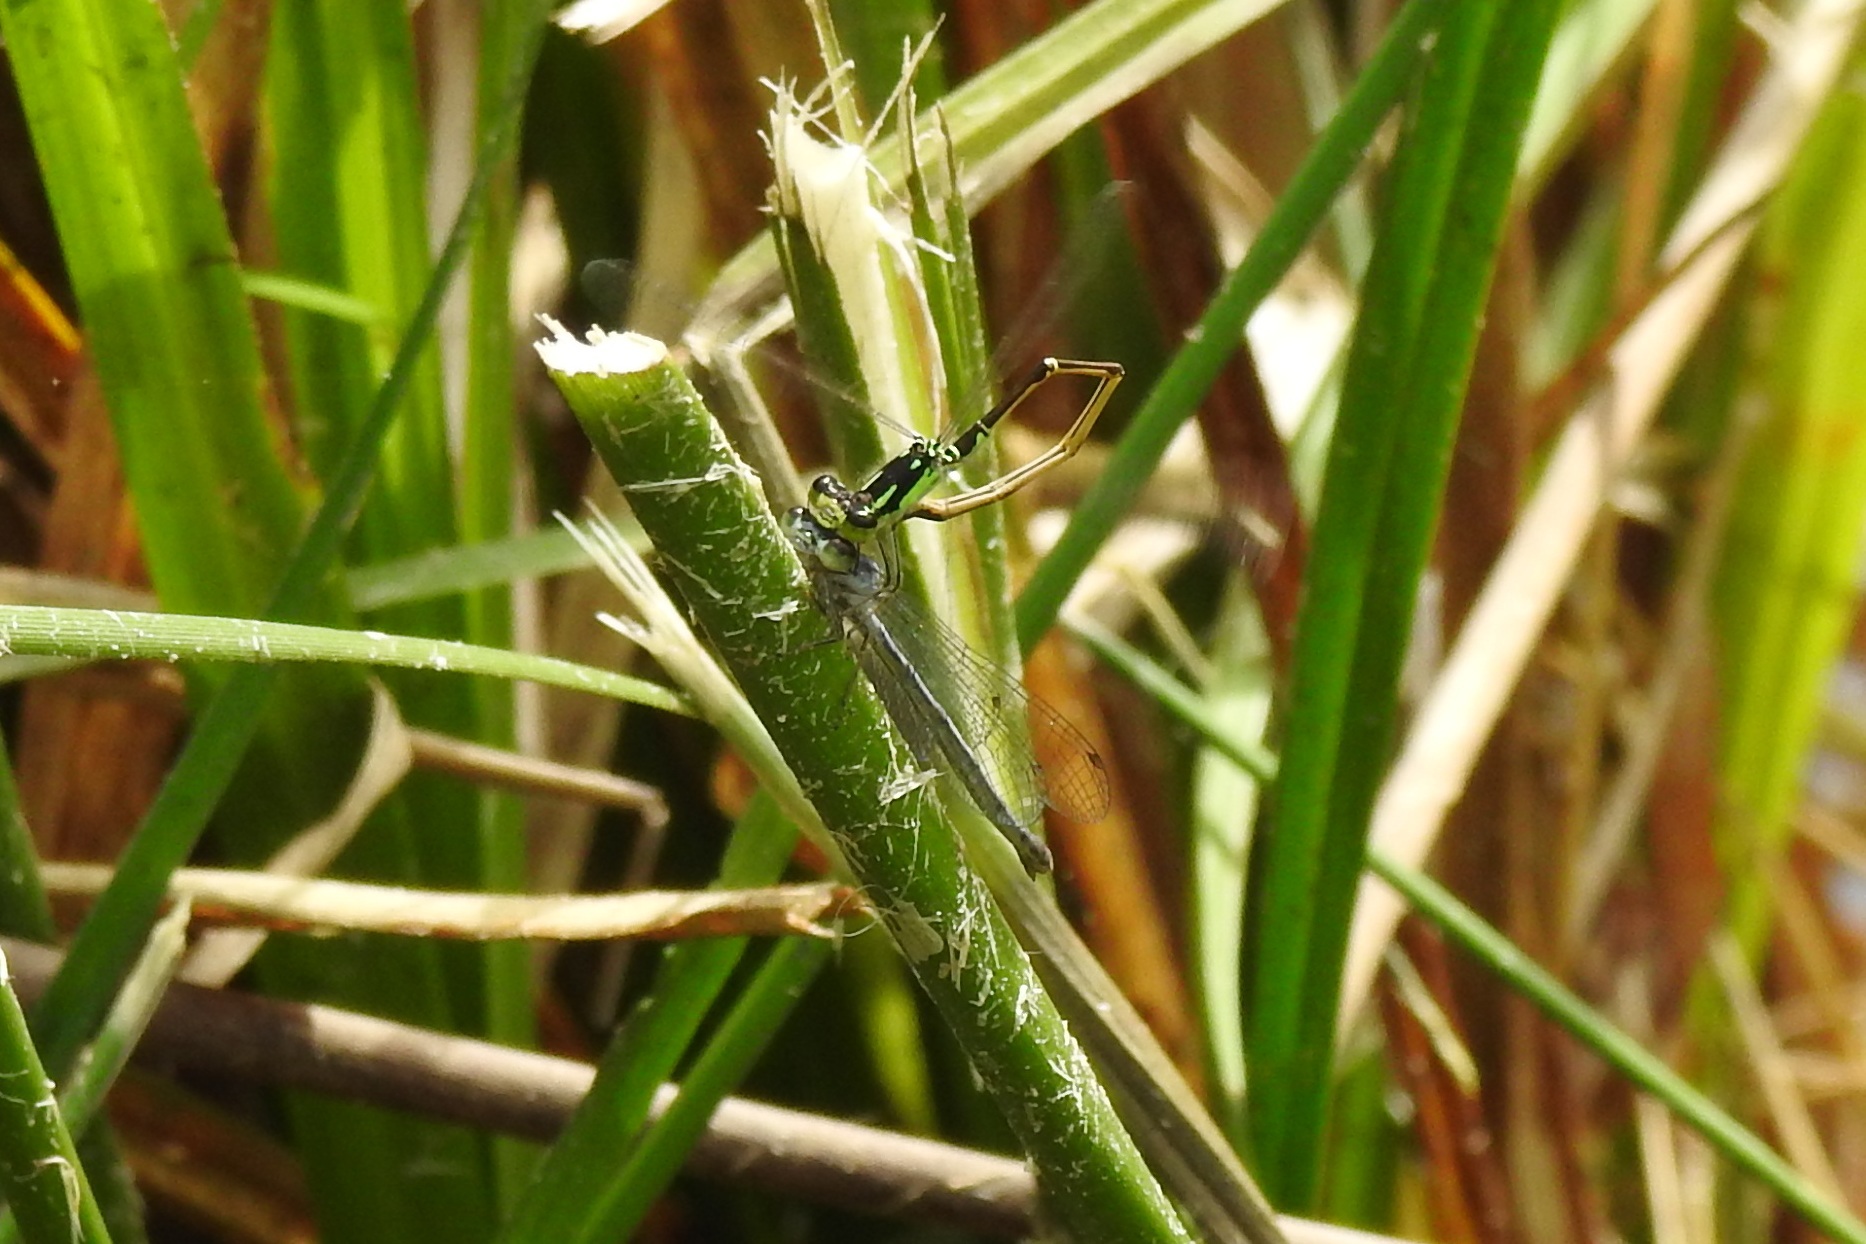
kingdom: Animalia
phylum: Arthropoda
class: Insecta
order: Odonata
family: Coenagrionidae
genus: Ischnura
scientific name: Ischnura posita
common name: Fragile forktail
